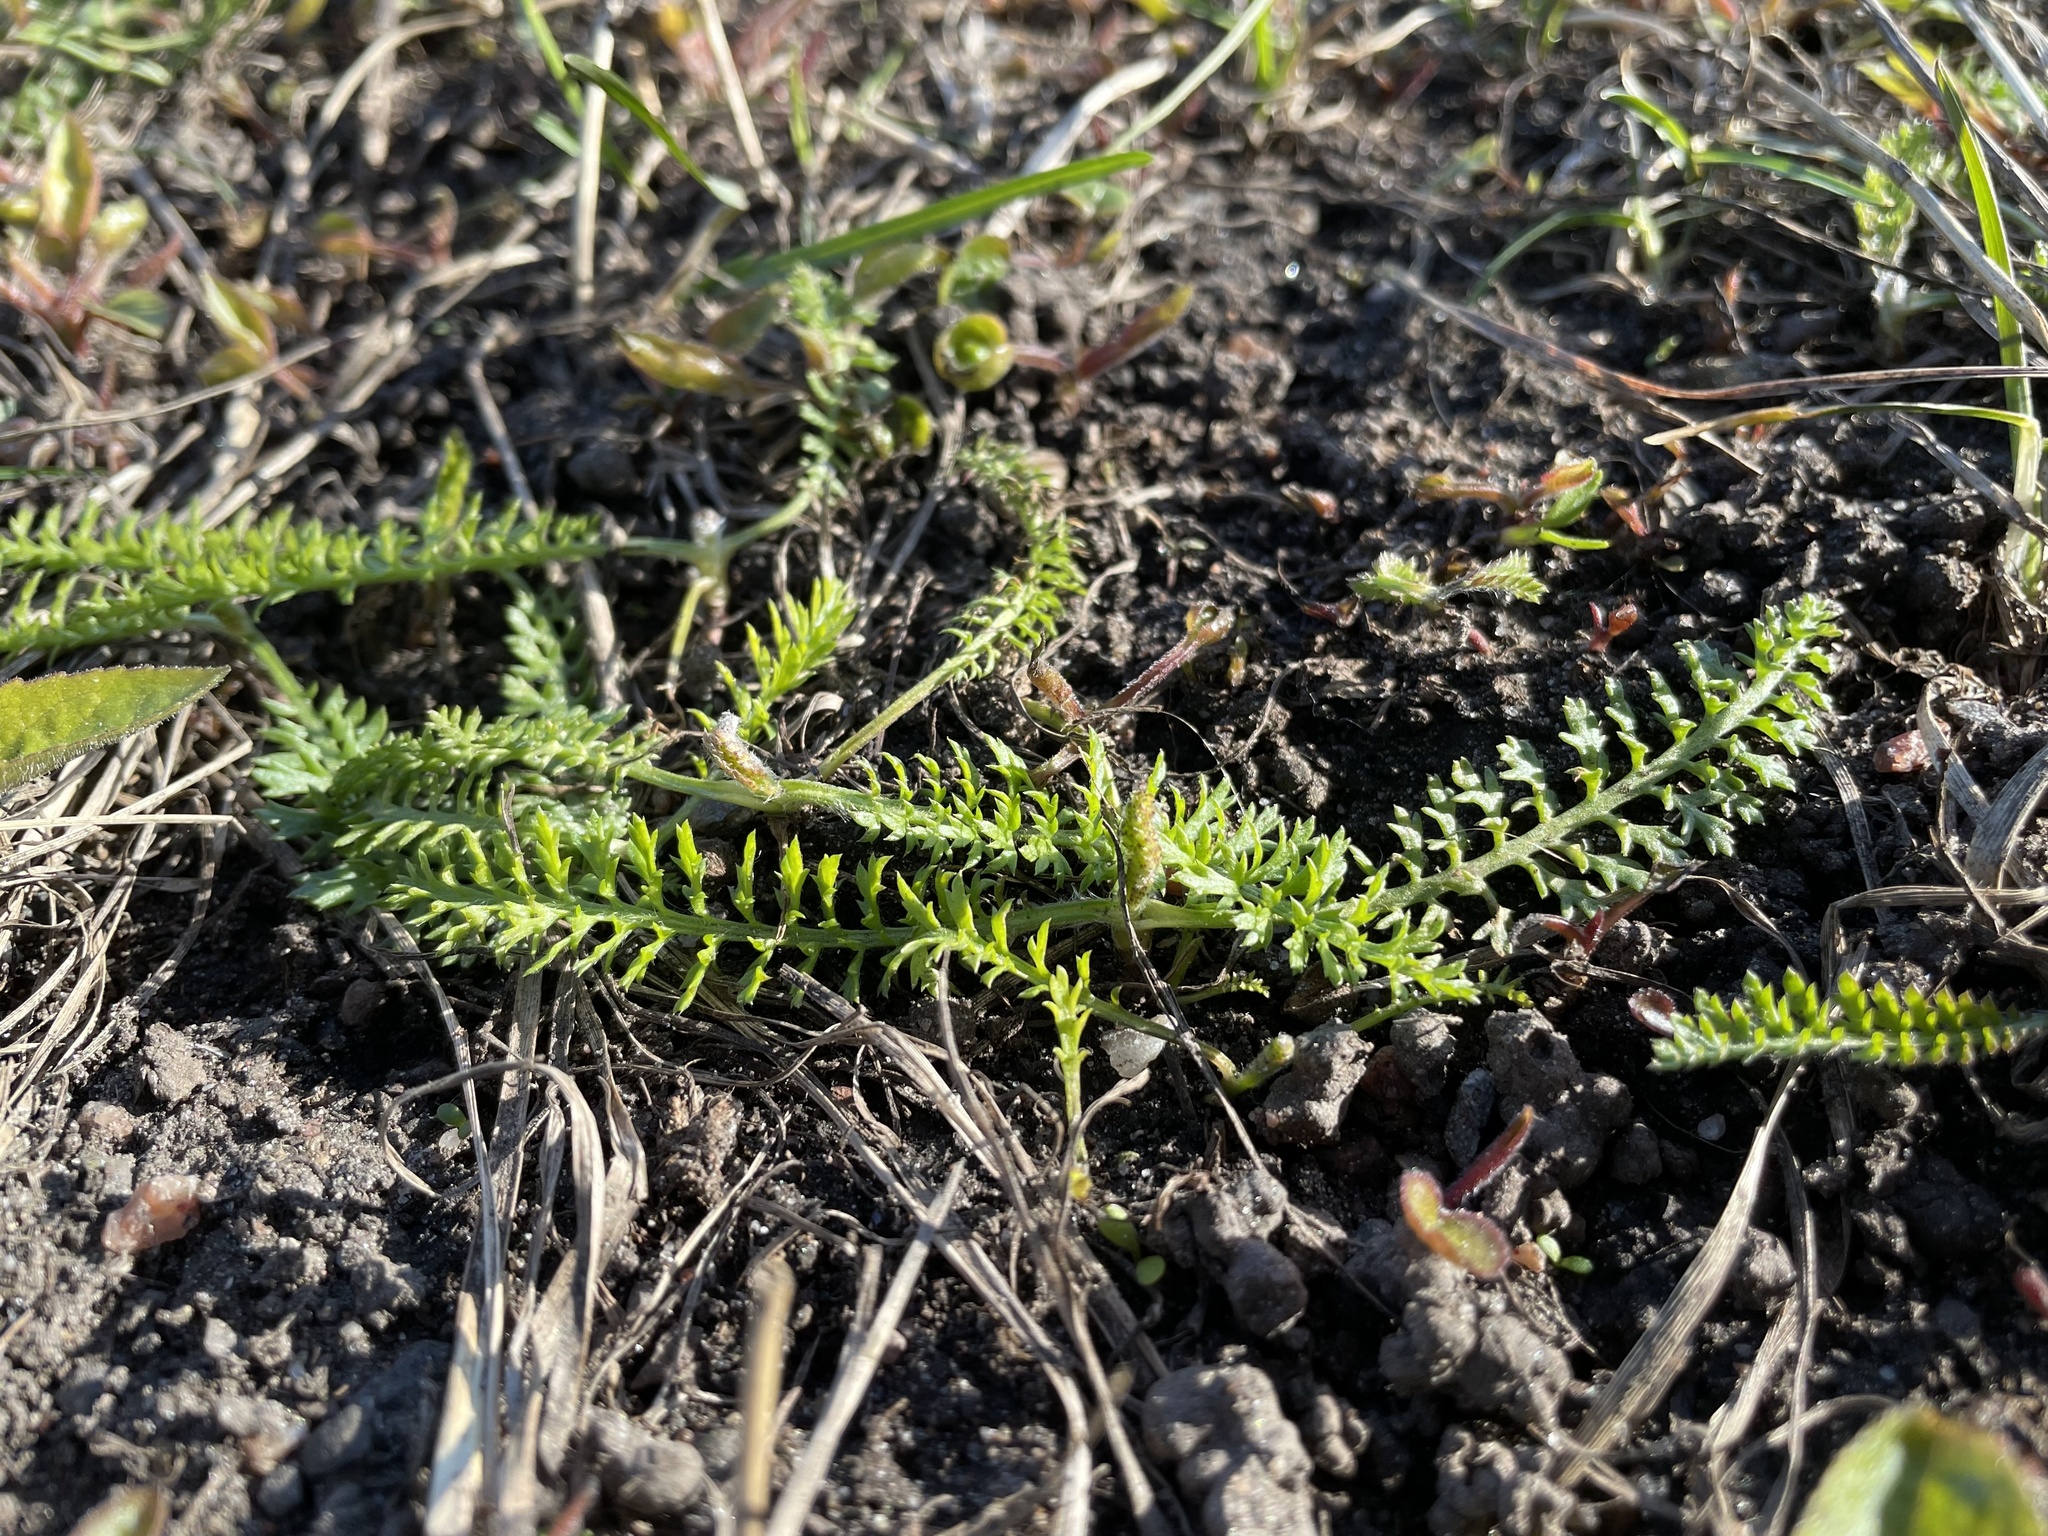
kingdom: Plantae
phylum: Tracheophyta
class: Magnoliopsida
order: Asterales
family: Asteraceae
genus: Achillea
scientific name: Achillea millefolium
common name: Yarrow
